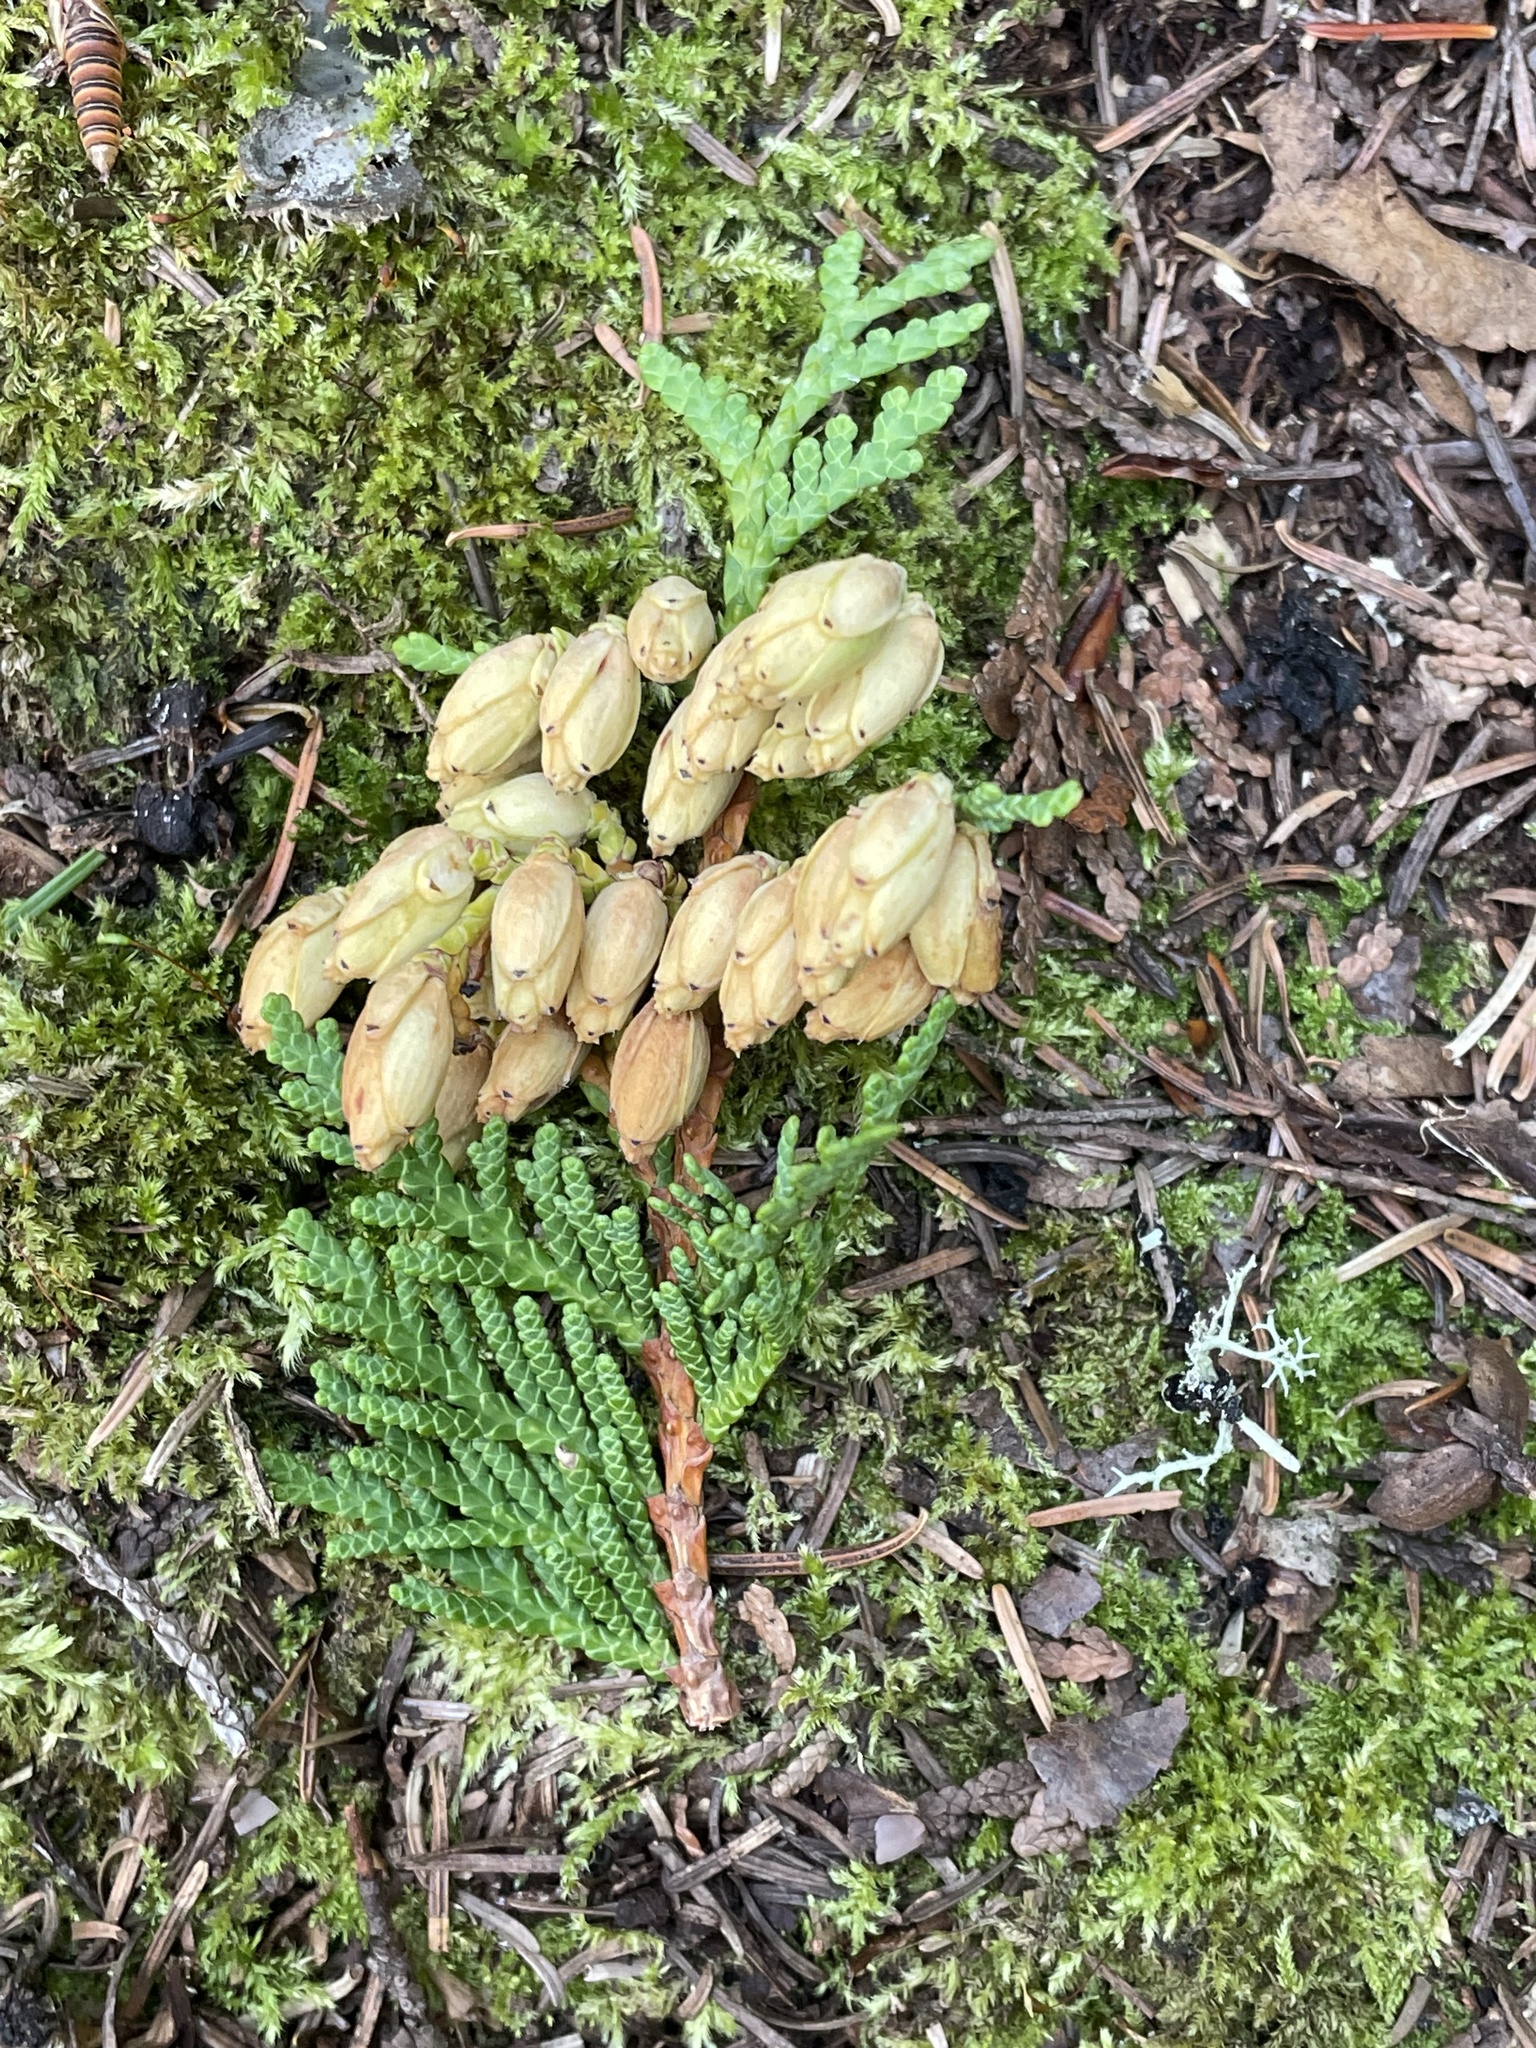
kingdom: Plantae
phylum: Tracheophyta
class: Pinopsida
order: Pinales
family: Cupressaceae
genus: Thuja
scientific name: Thuja occidentalis
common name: Northern white-cedar
